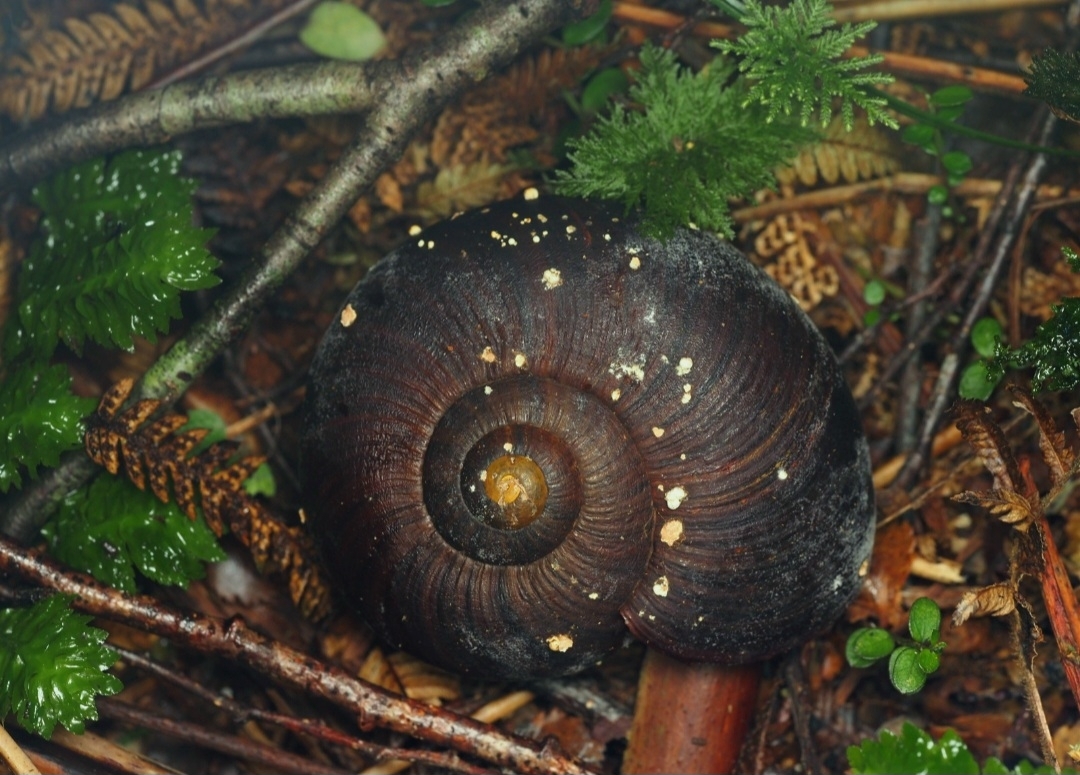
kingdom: Fungi
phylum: Ascomycota
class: Eurotiomycetes
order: Onygenales
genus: Harorepupu
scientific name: Harorepupu aotearoa
